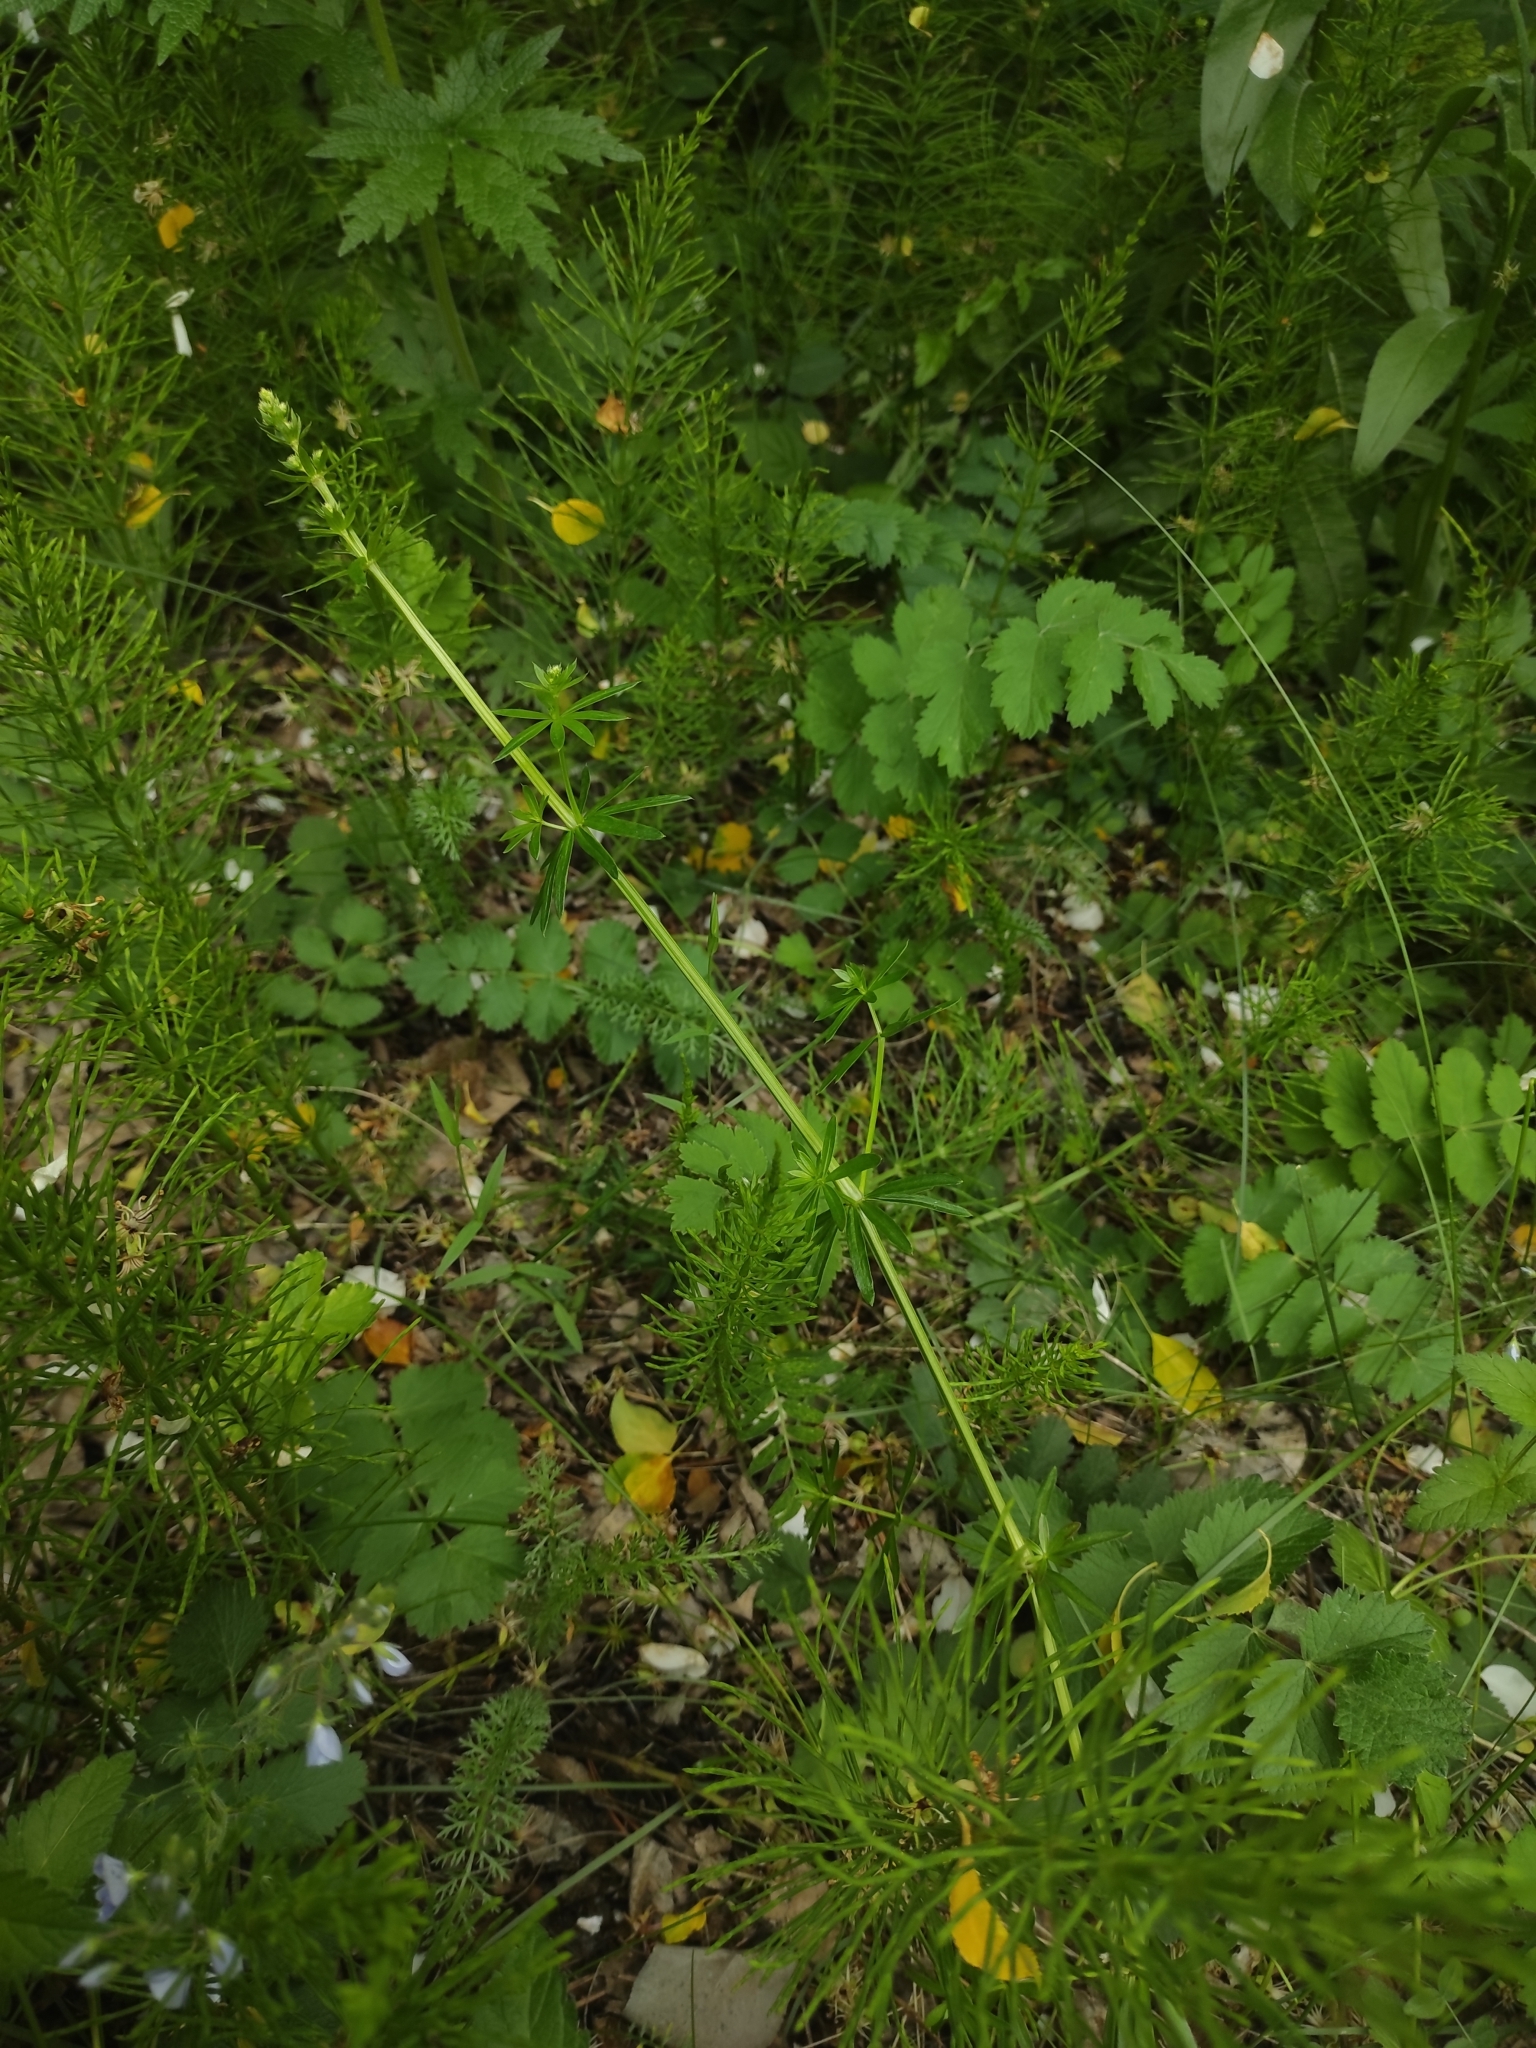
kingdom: Plantae
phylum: Tracheophyta
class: Magnoliopsida
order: Gentianales
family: Rubiaceae
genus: Galium
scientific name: Galium mollugo
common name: Hedge bedstraw
